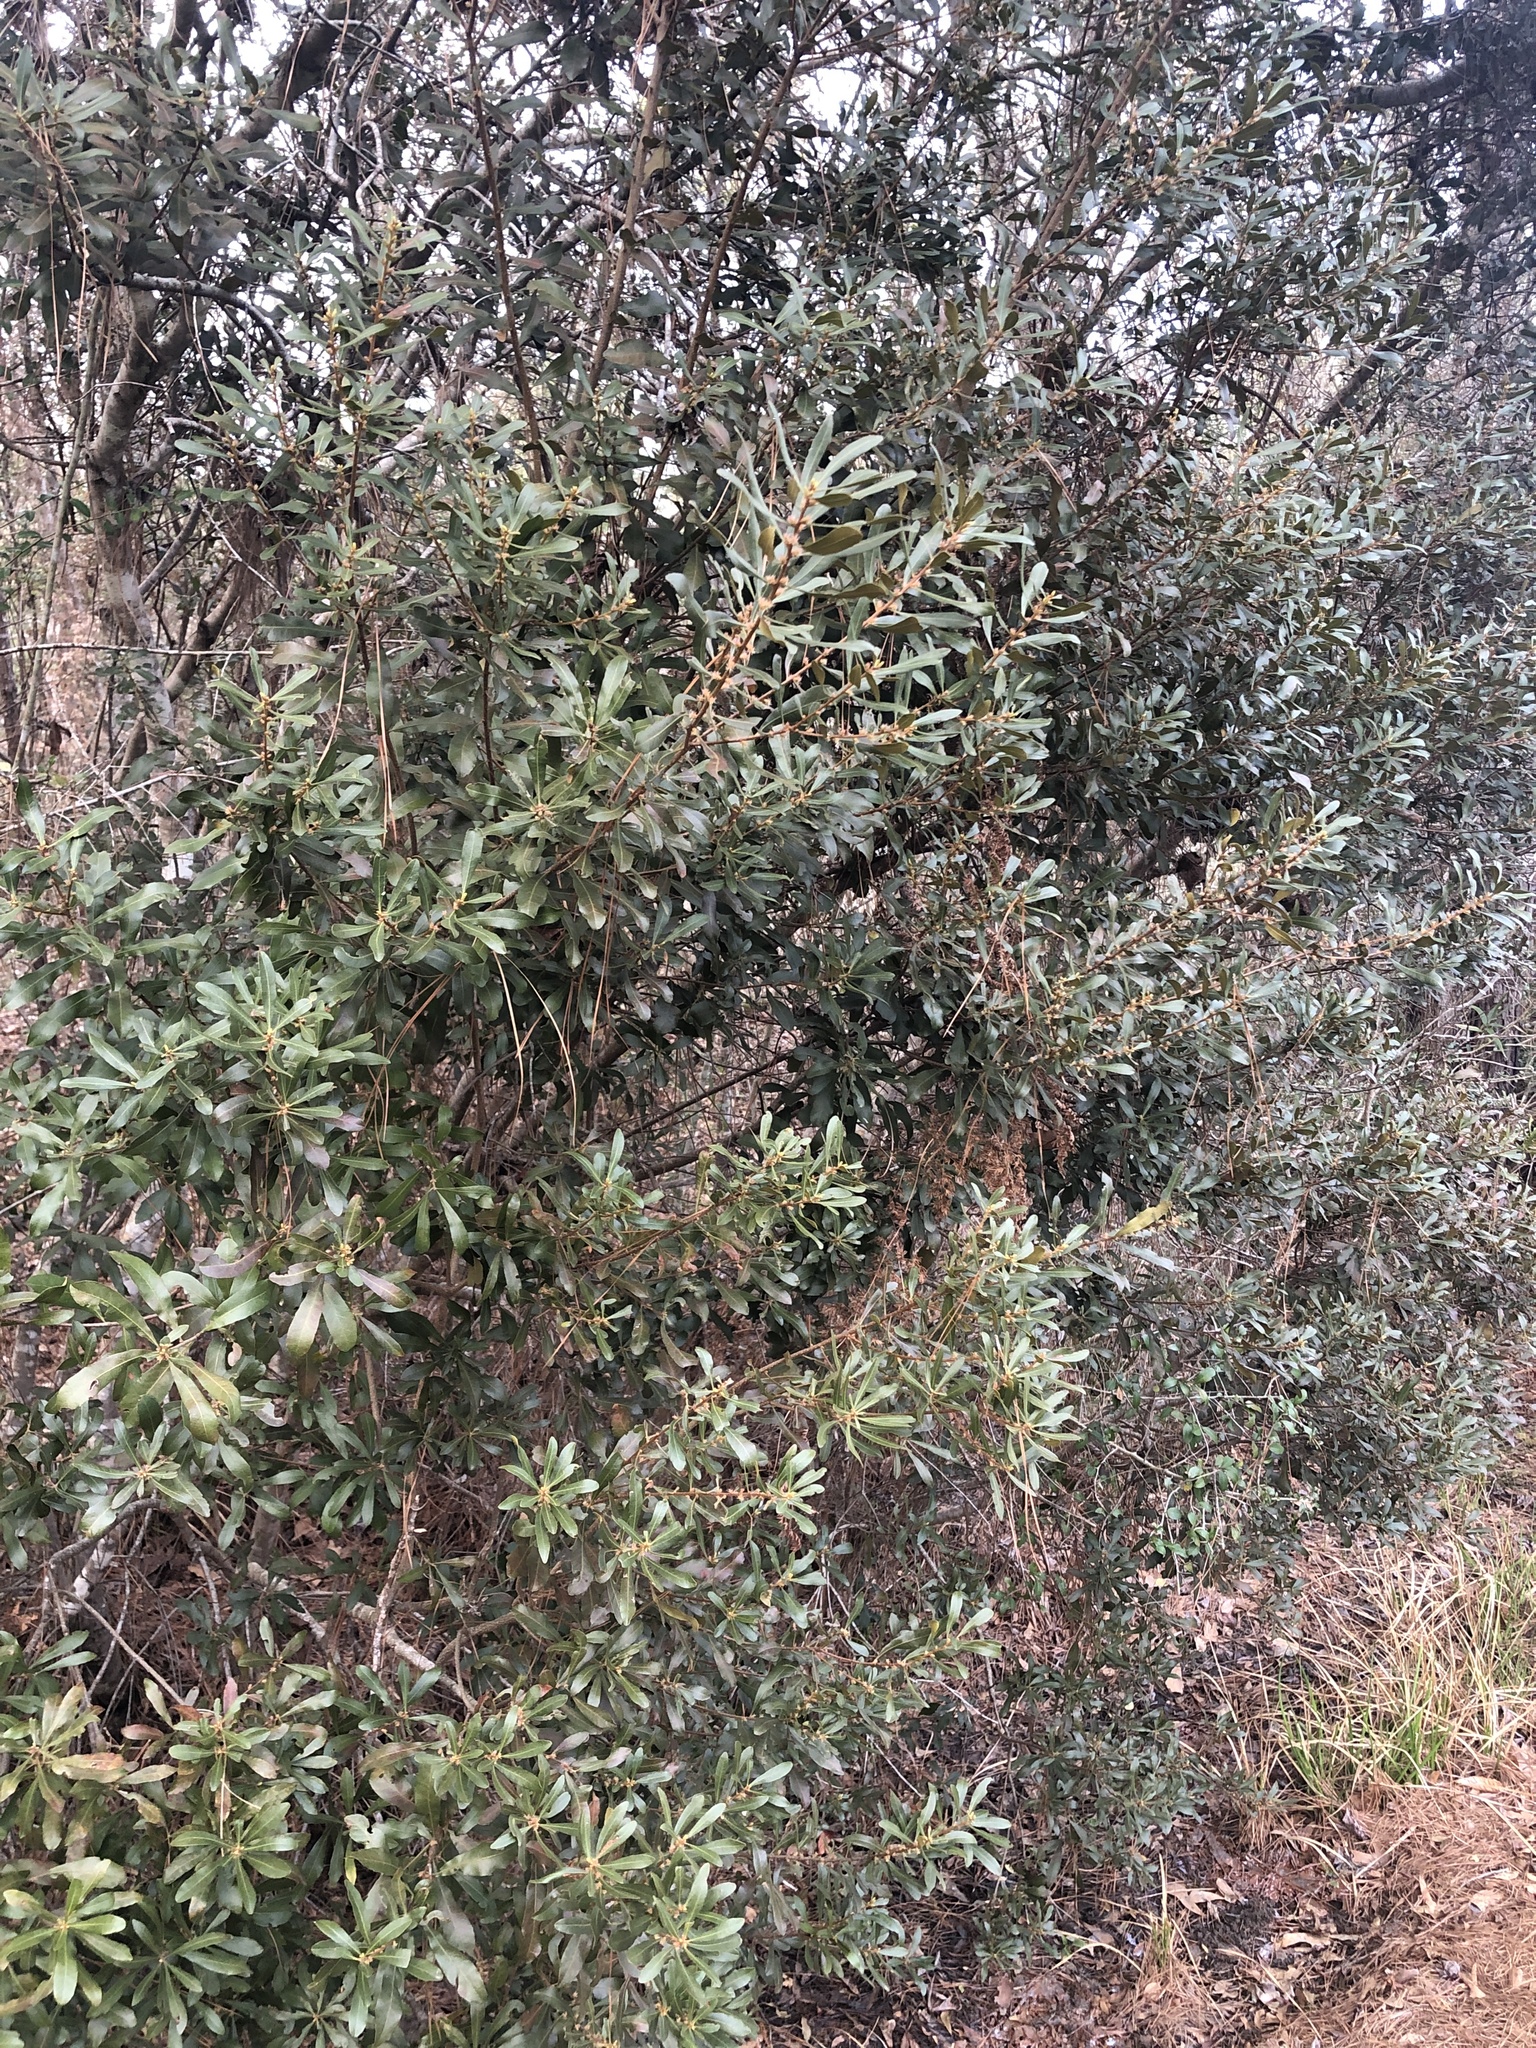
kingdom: Plantae
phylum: Tracheophyta
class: Magnoliopsida
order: Fagales
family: Myricaceae
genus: Morella
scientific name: Morella cerifera
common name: Wax myrtle
